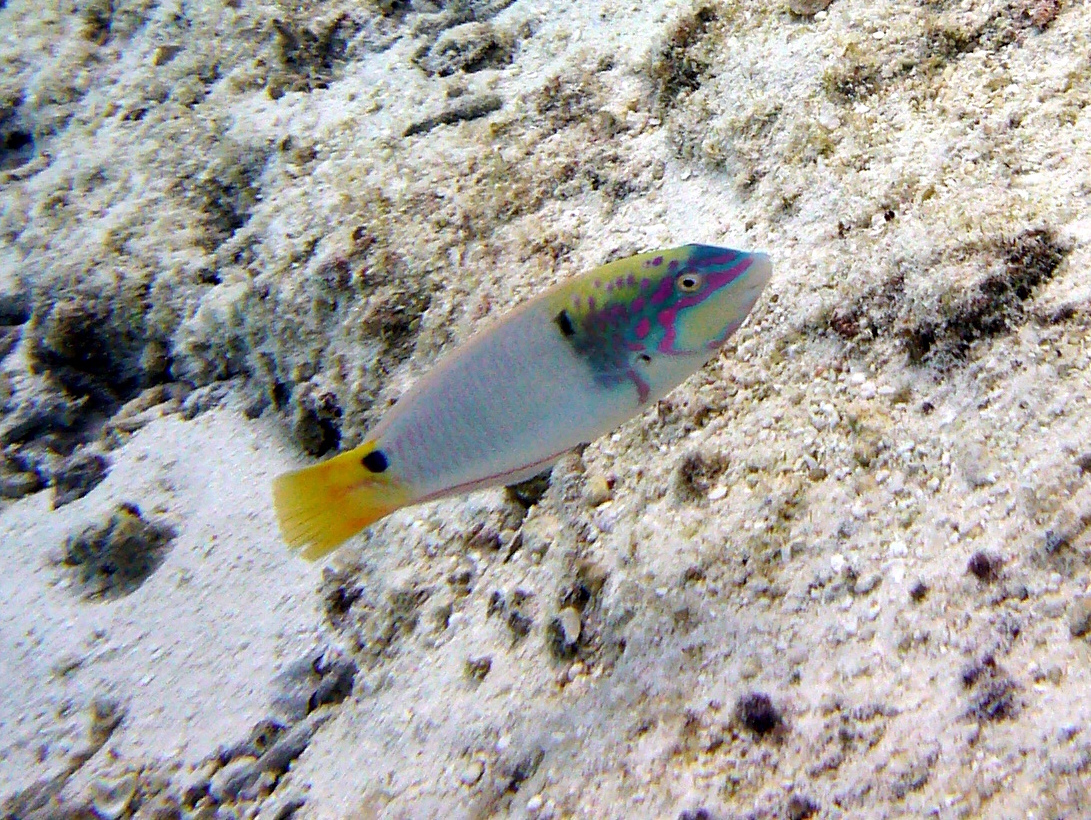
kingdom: Animalia
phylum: Chordata
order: Perciformes
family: Labridae
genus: Halichoeres
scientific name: Halichoeres trimaculatus
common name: Three-spot wrasse
